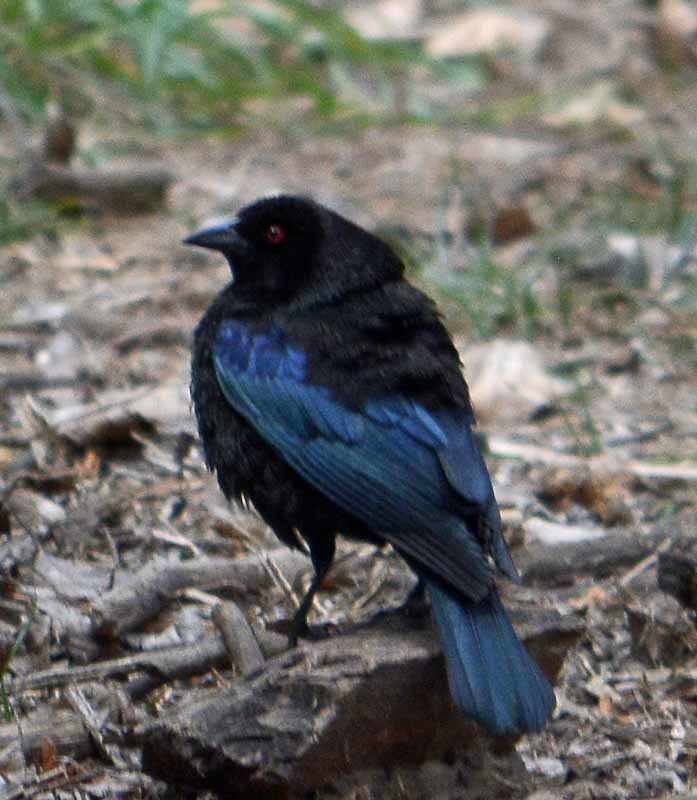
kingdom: Animalia
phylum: Chordata
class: Aves
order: Passeriformes
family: Icteridae
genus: Molothrus
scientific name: Molothrus aeneus
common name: Bronzed cowbird
